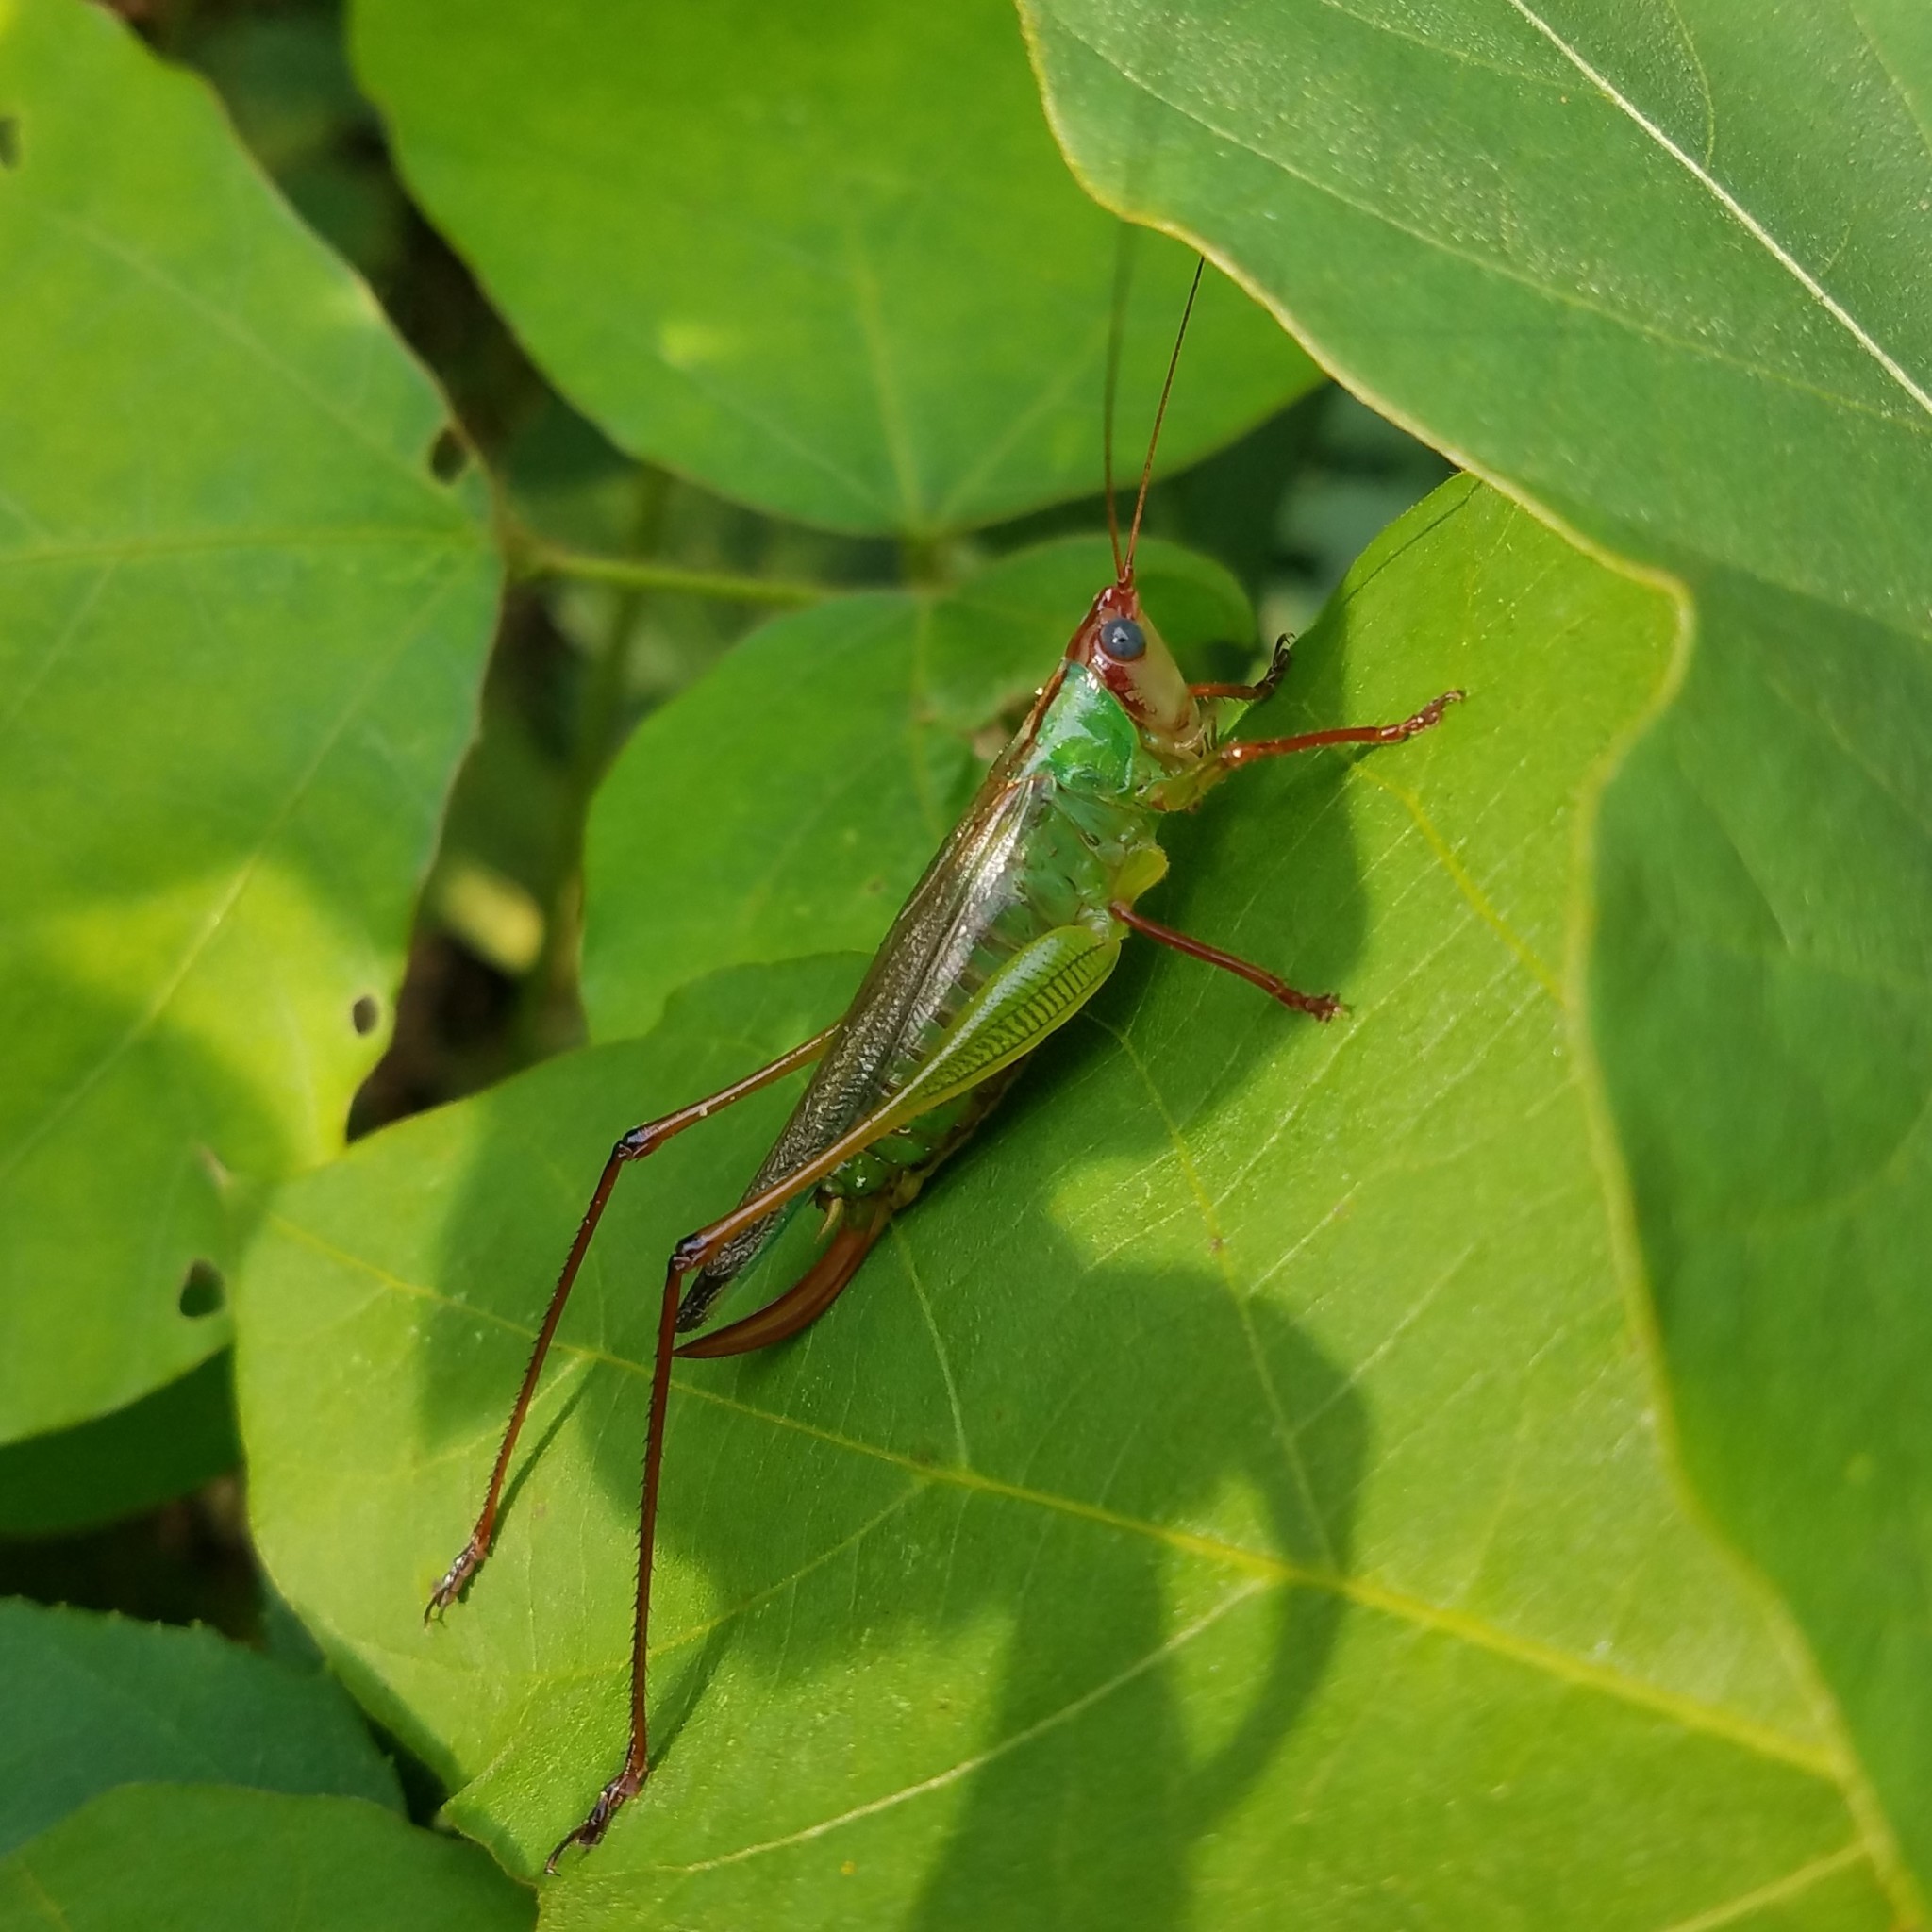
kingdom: Animalia
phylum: Arthropoda
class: Insecta
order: Orthoptera
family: Tettigoniidae
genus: Orchelimum
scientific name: Orchelimum pulchellum
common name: Handsome meadow katydid
